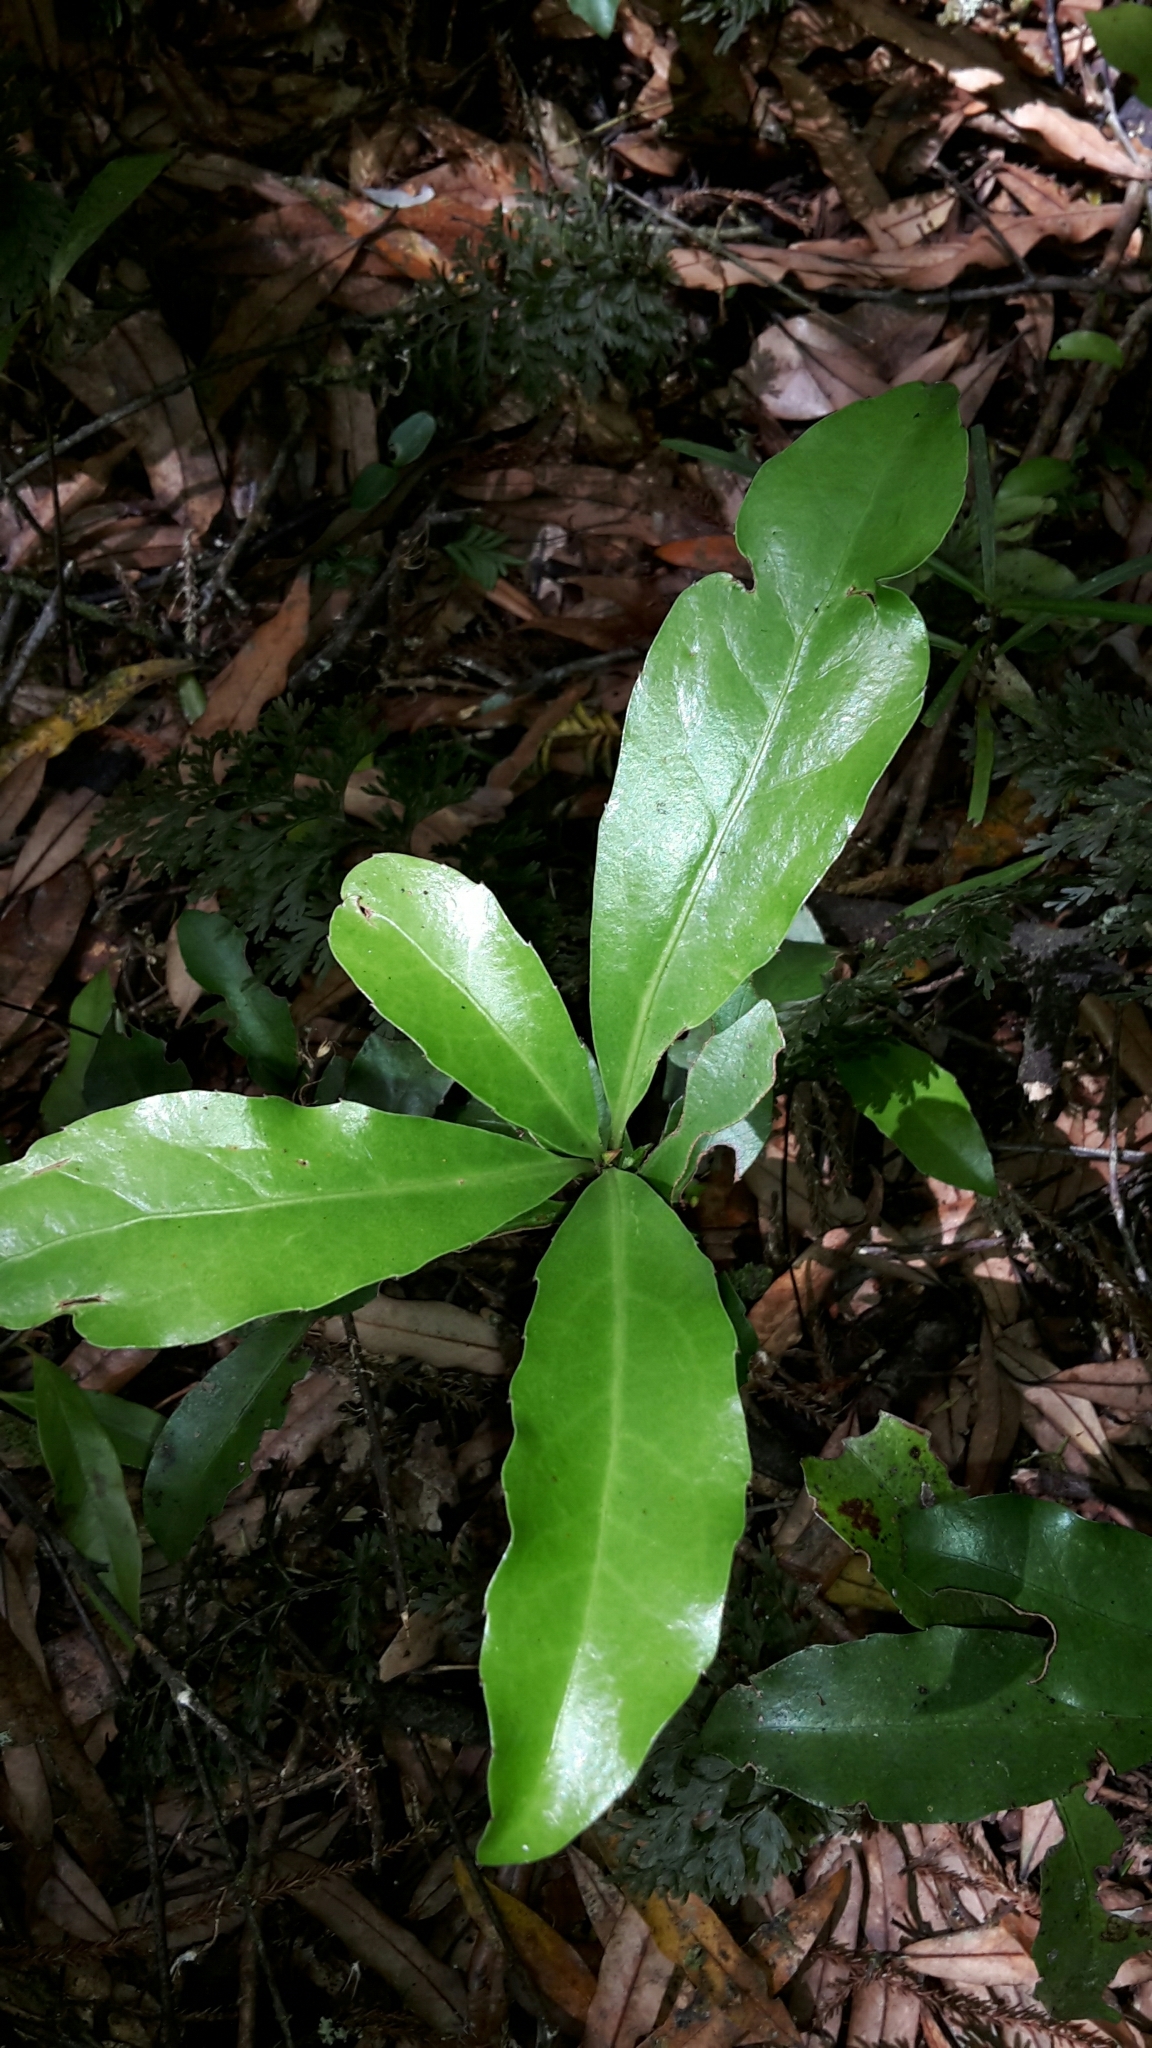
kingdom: Plantae
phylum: Tracheophyta
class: Magnoliopsida
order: Asterales
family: Alseuosmiaceae
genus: Alseuosmia
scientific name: Alseuosmia macrophylla
